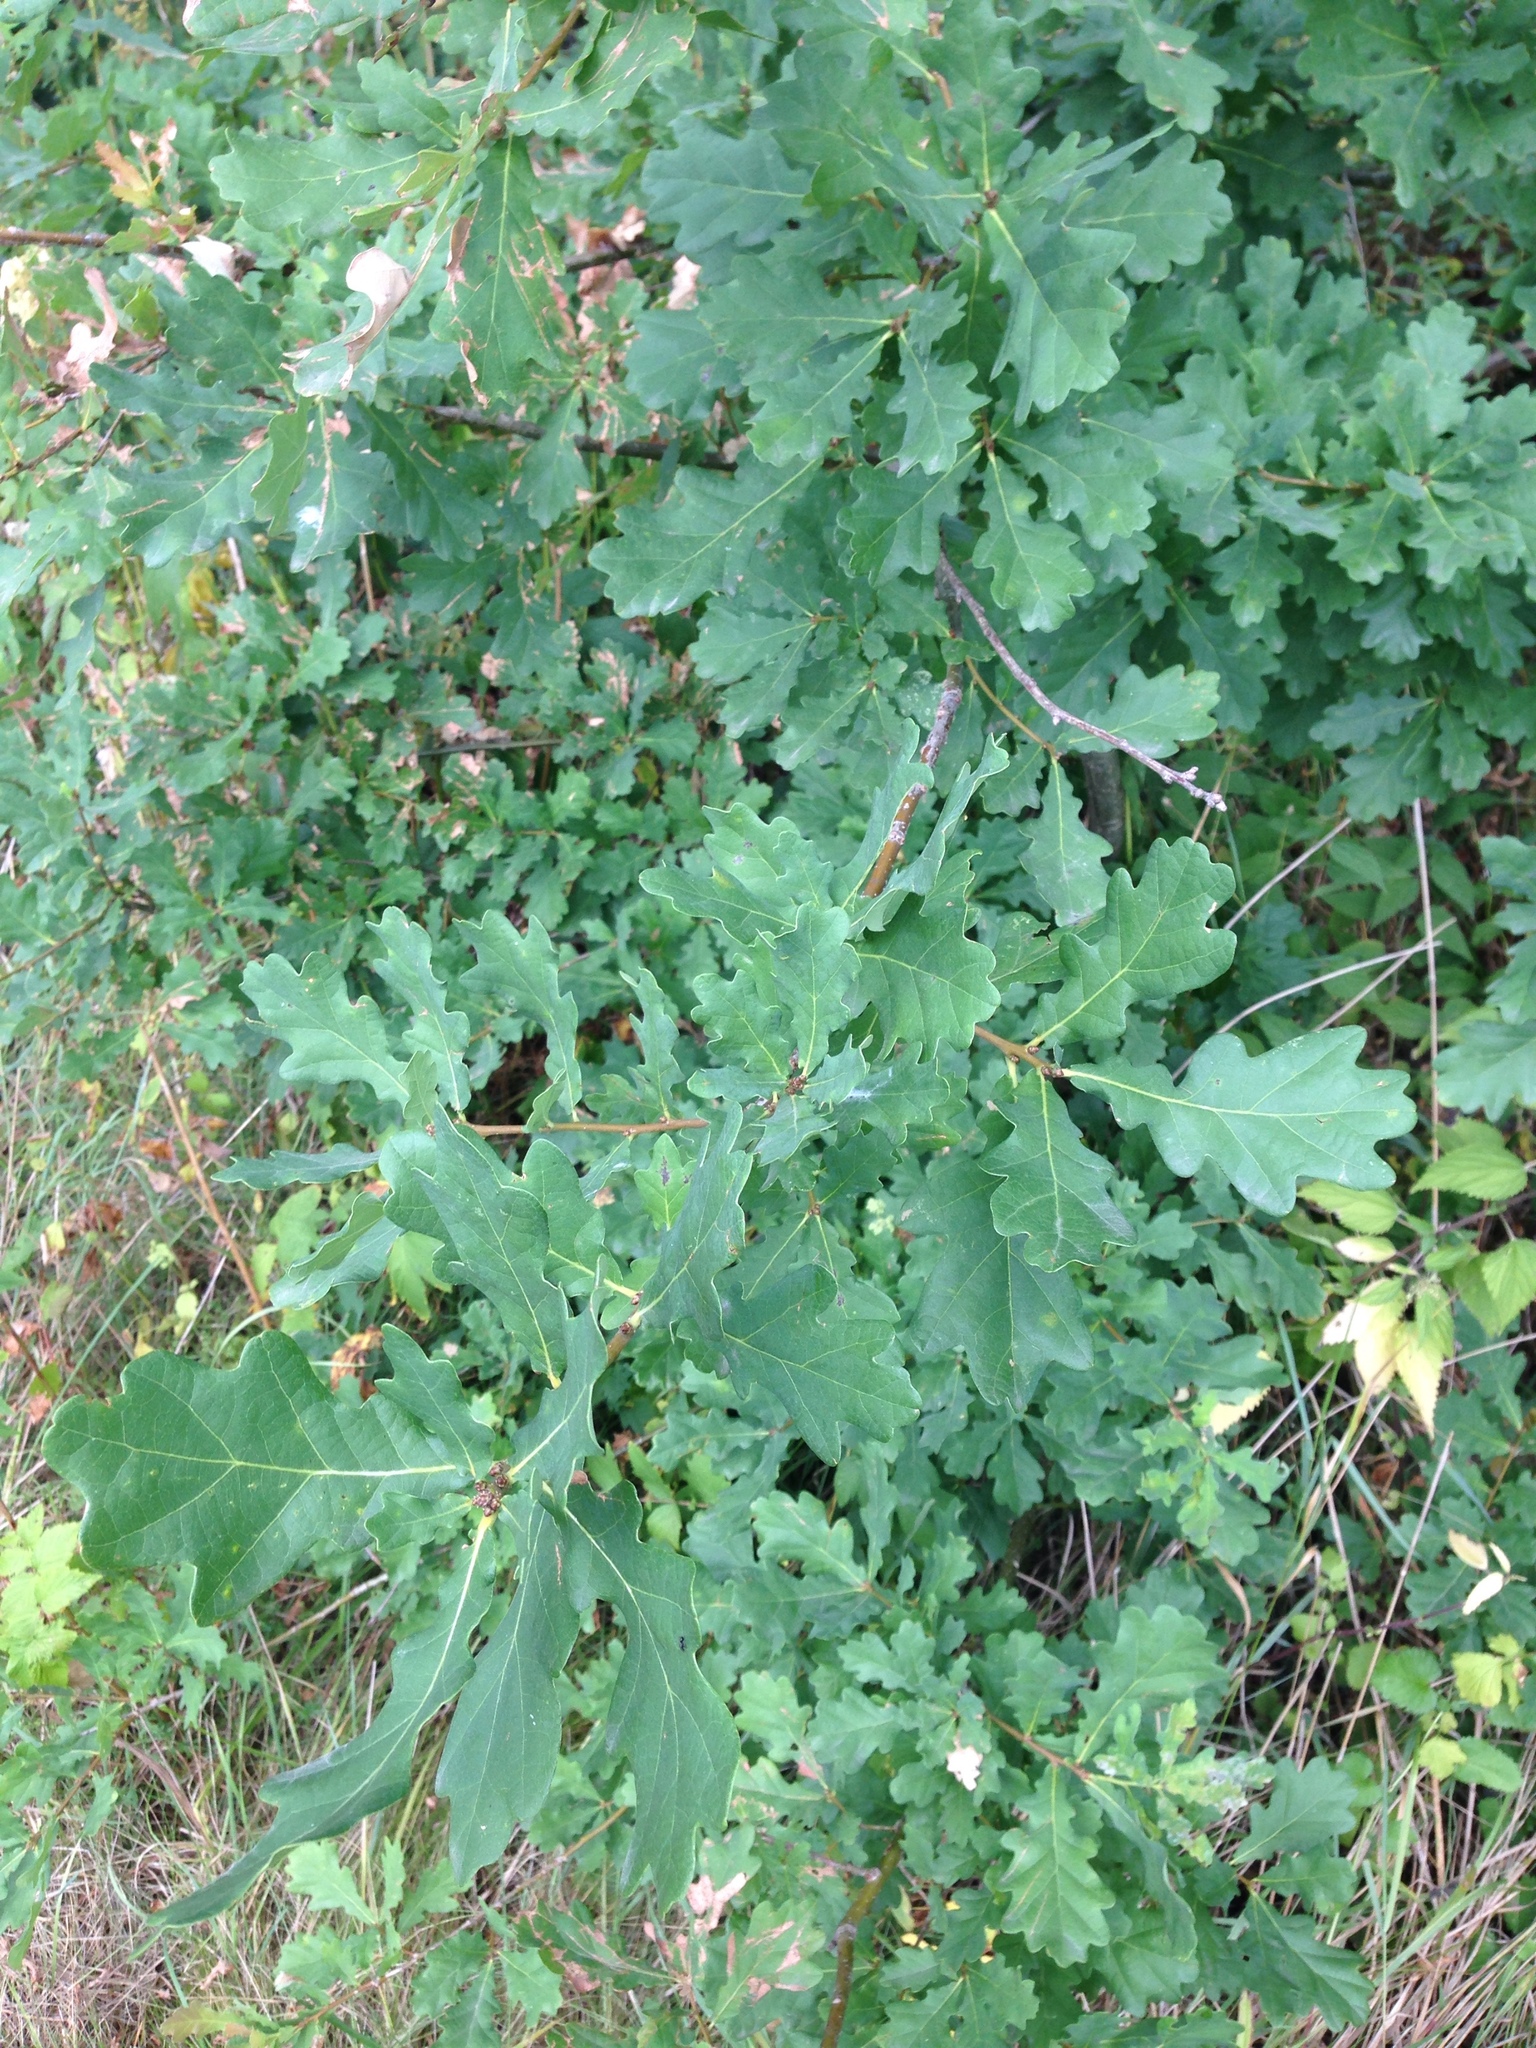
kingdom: Plantae
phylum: Tracheophyta
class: Magnoliopsida
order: Fagales
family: Fagaceae
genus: Quercus
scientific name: Quercus robur
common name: Pedunculate oak
